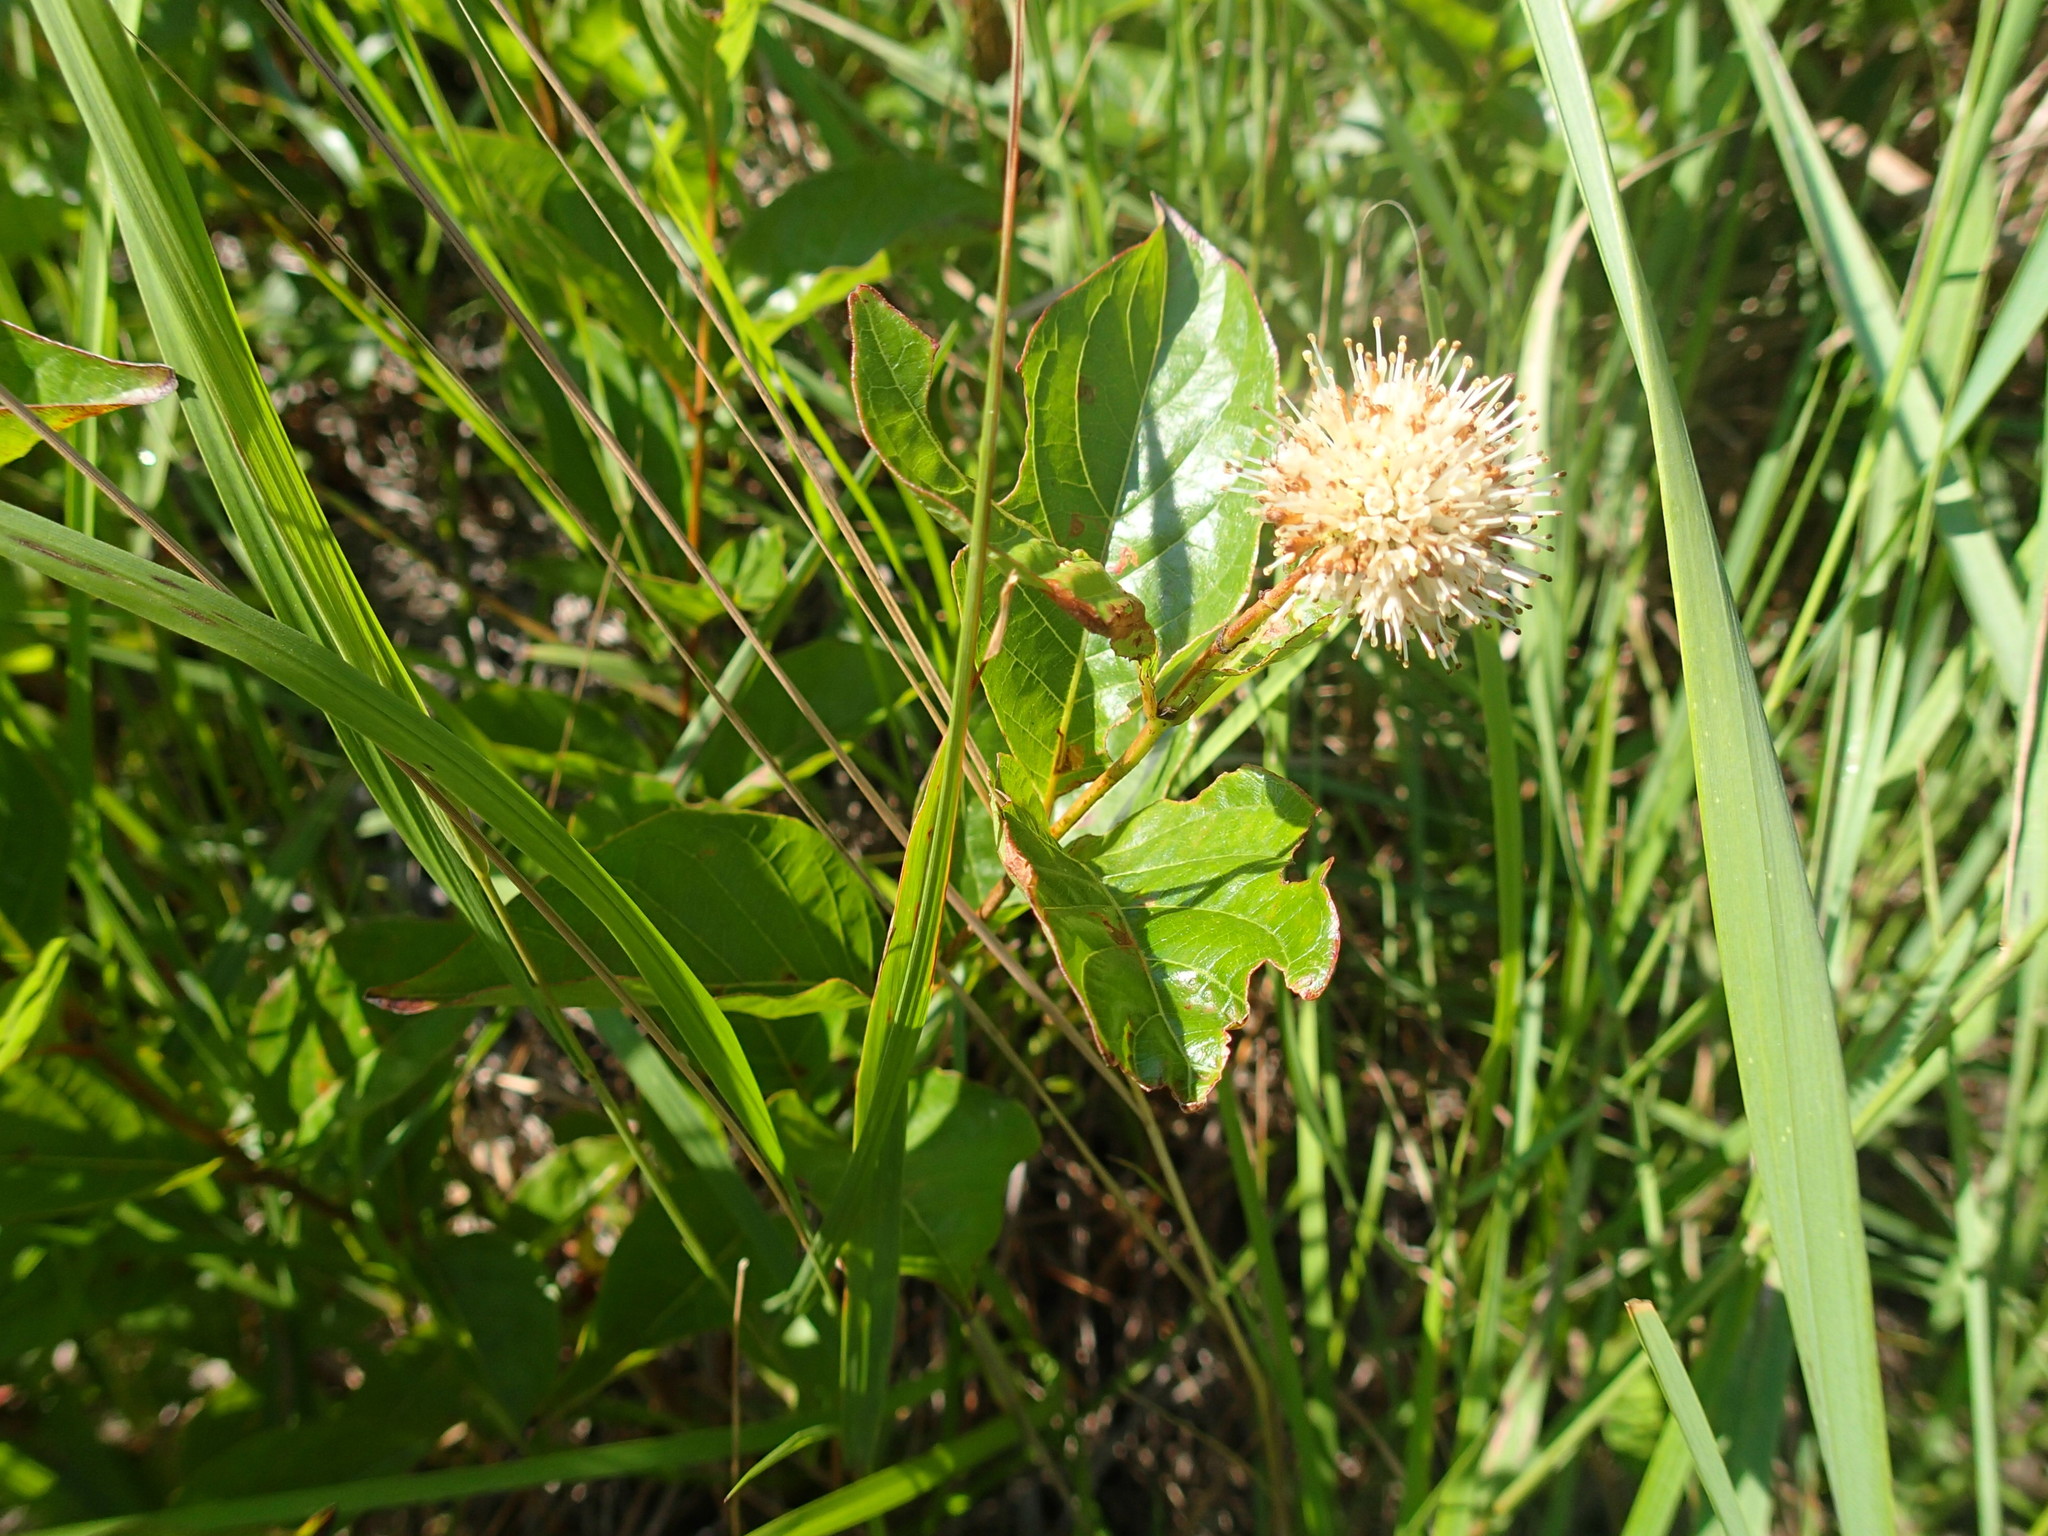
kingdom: Plantae
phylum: Tracheophyta
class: Magnoliopsida
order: Gentianales
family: Rubiaceae
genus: Cephalanthus
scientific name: Cephalanthus occidentalis
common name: Button-willow
